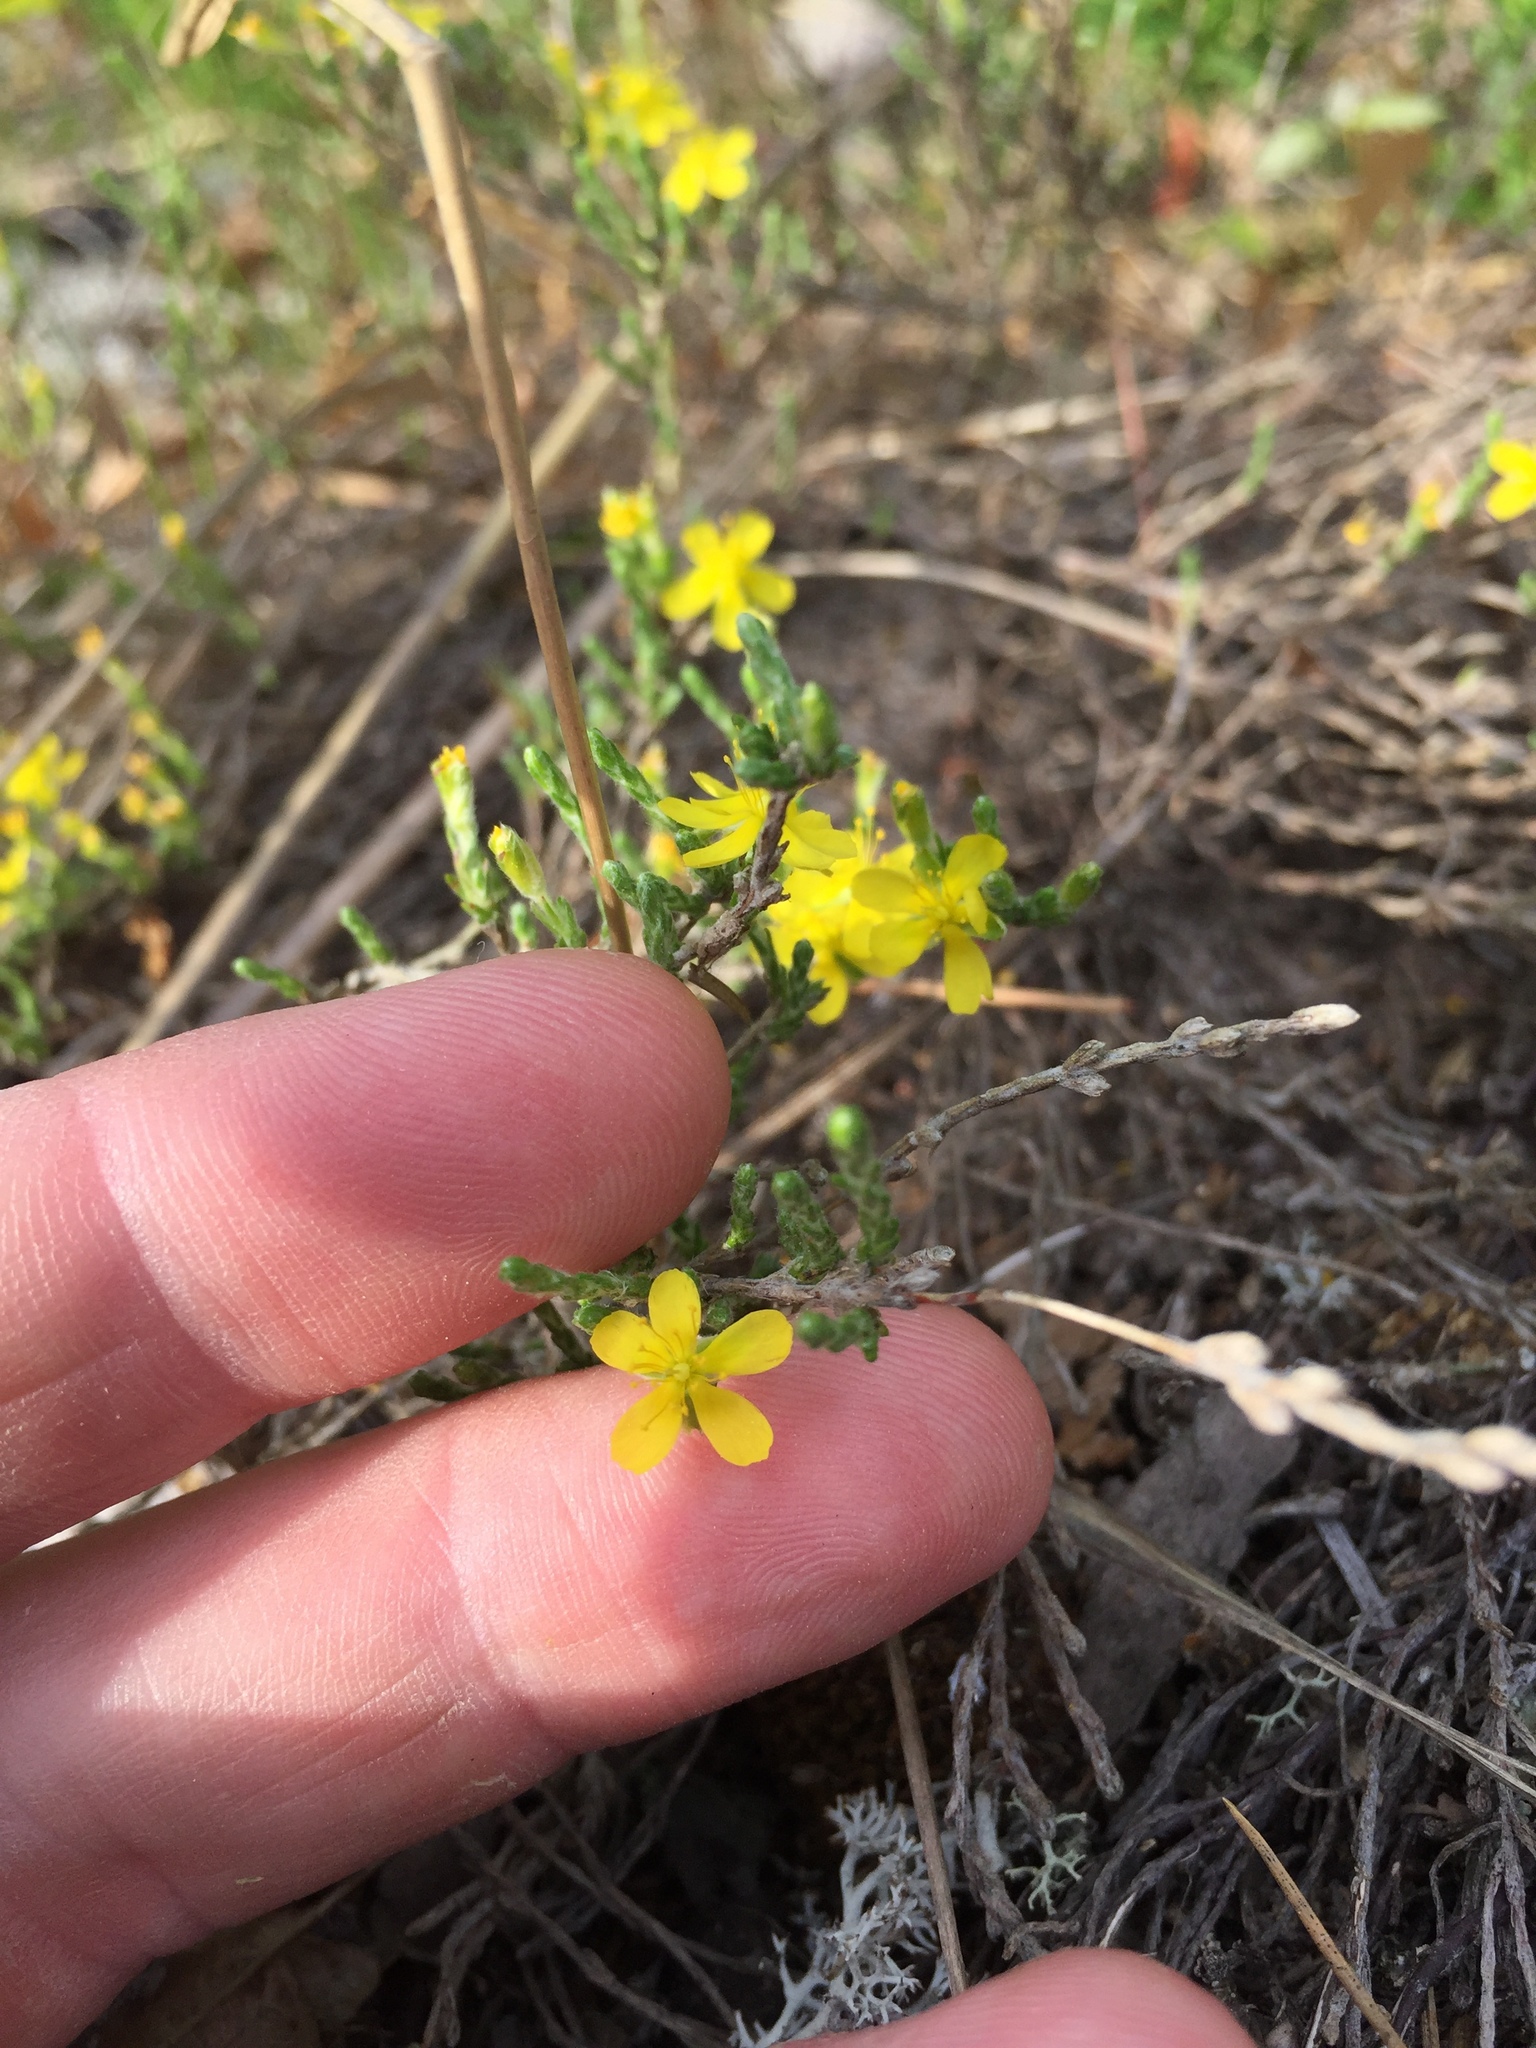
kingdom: Plantae
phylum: Tracheophyta
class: Magnoliopsida
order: Malvales
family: Cistaceae
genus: Hudsonia
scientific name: Hudsonia tomentosa
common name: Beach-heath
